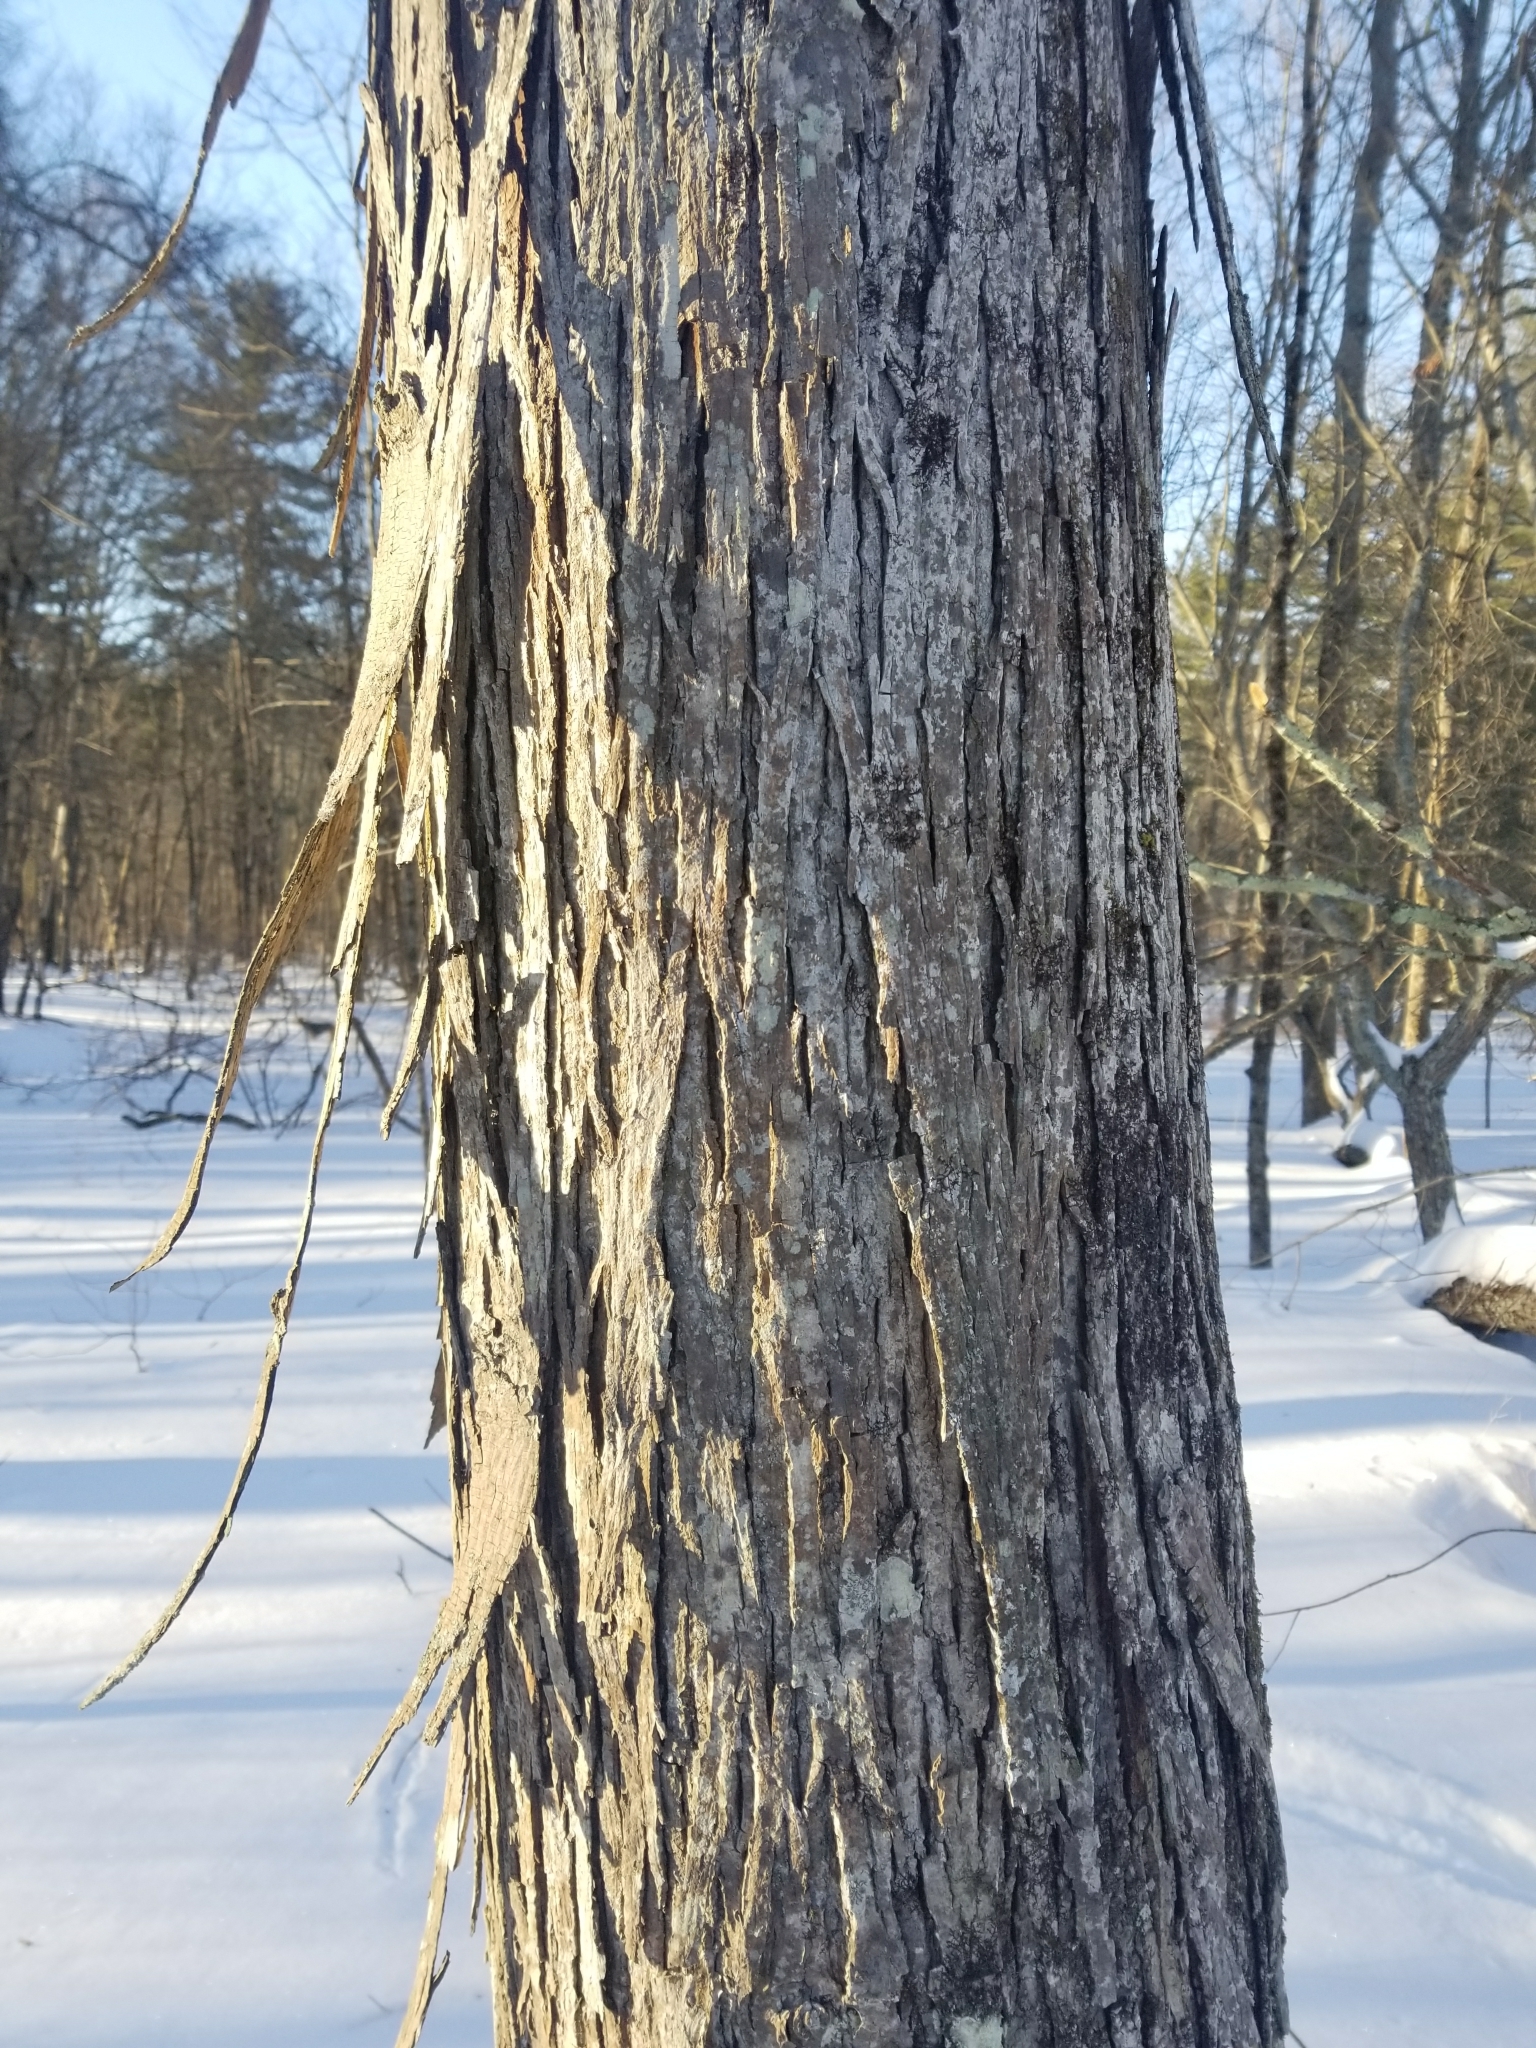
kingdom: Plantae
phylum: Tracheophyta
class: Magnoliopsida
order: Fagales
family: Juglandaceae
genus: Carya
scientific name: Carya ovata
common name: Shagbark hickory
